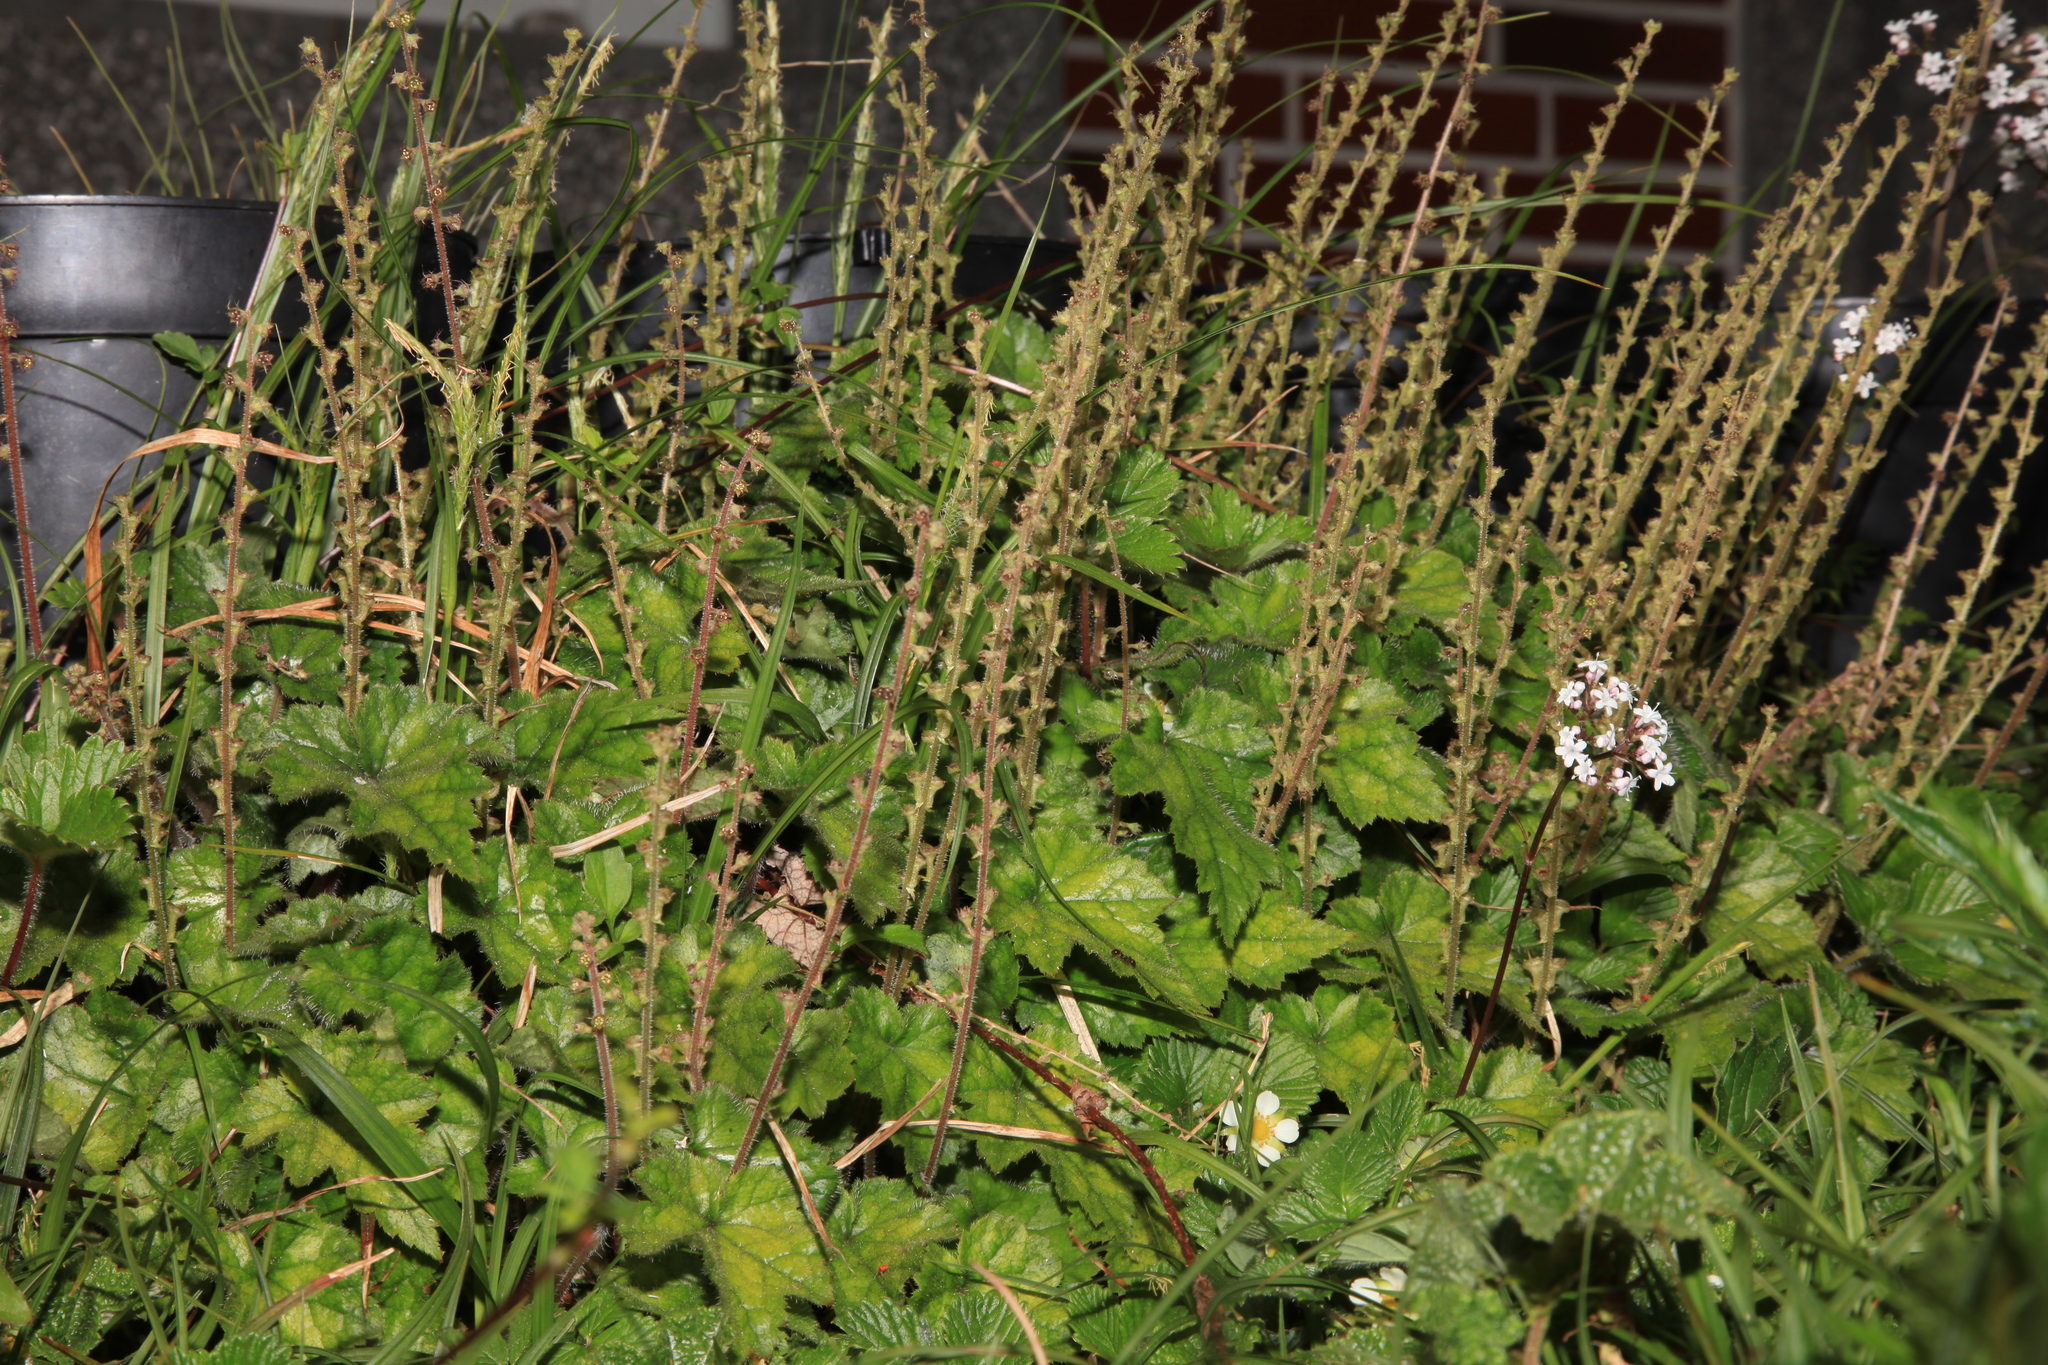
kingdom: Plantae
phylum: Tracheophyta
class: Magnoliopsida
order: Saxifragales
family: Saxifragaceae
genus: Asimitellaria
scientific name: Asimitellaria formosana
